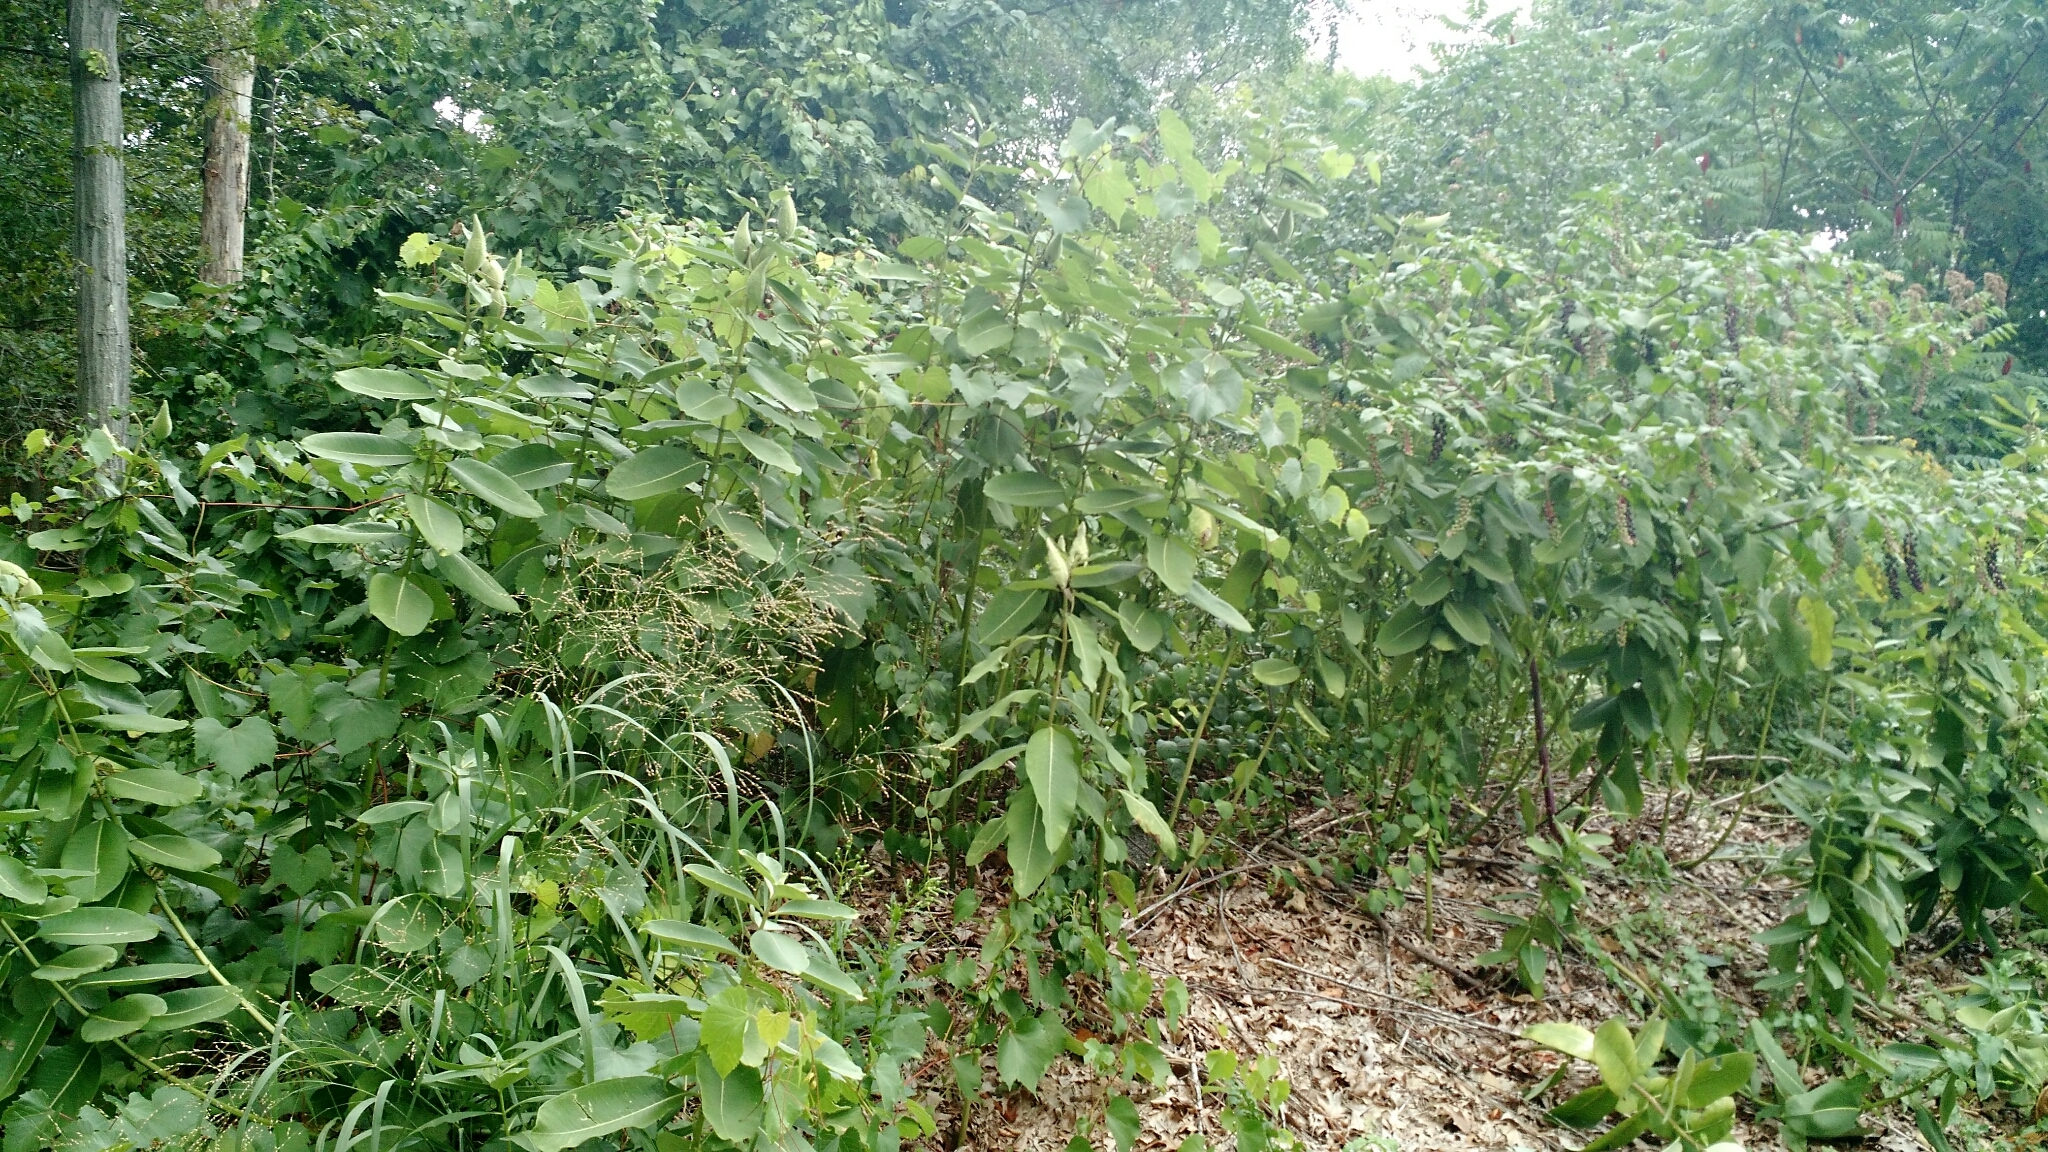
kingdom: Plantae
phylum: Tracheophyta
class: Magnoliopsida
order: Gentianales
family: Apocynaceae
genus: Asclepias
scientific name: Asclepias syriaca
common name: Common milkweed
